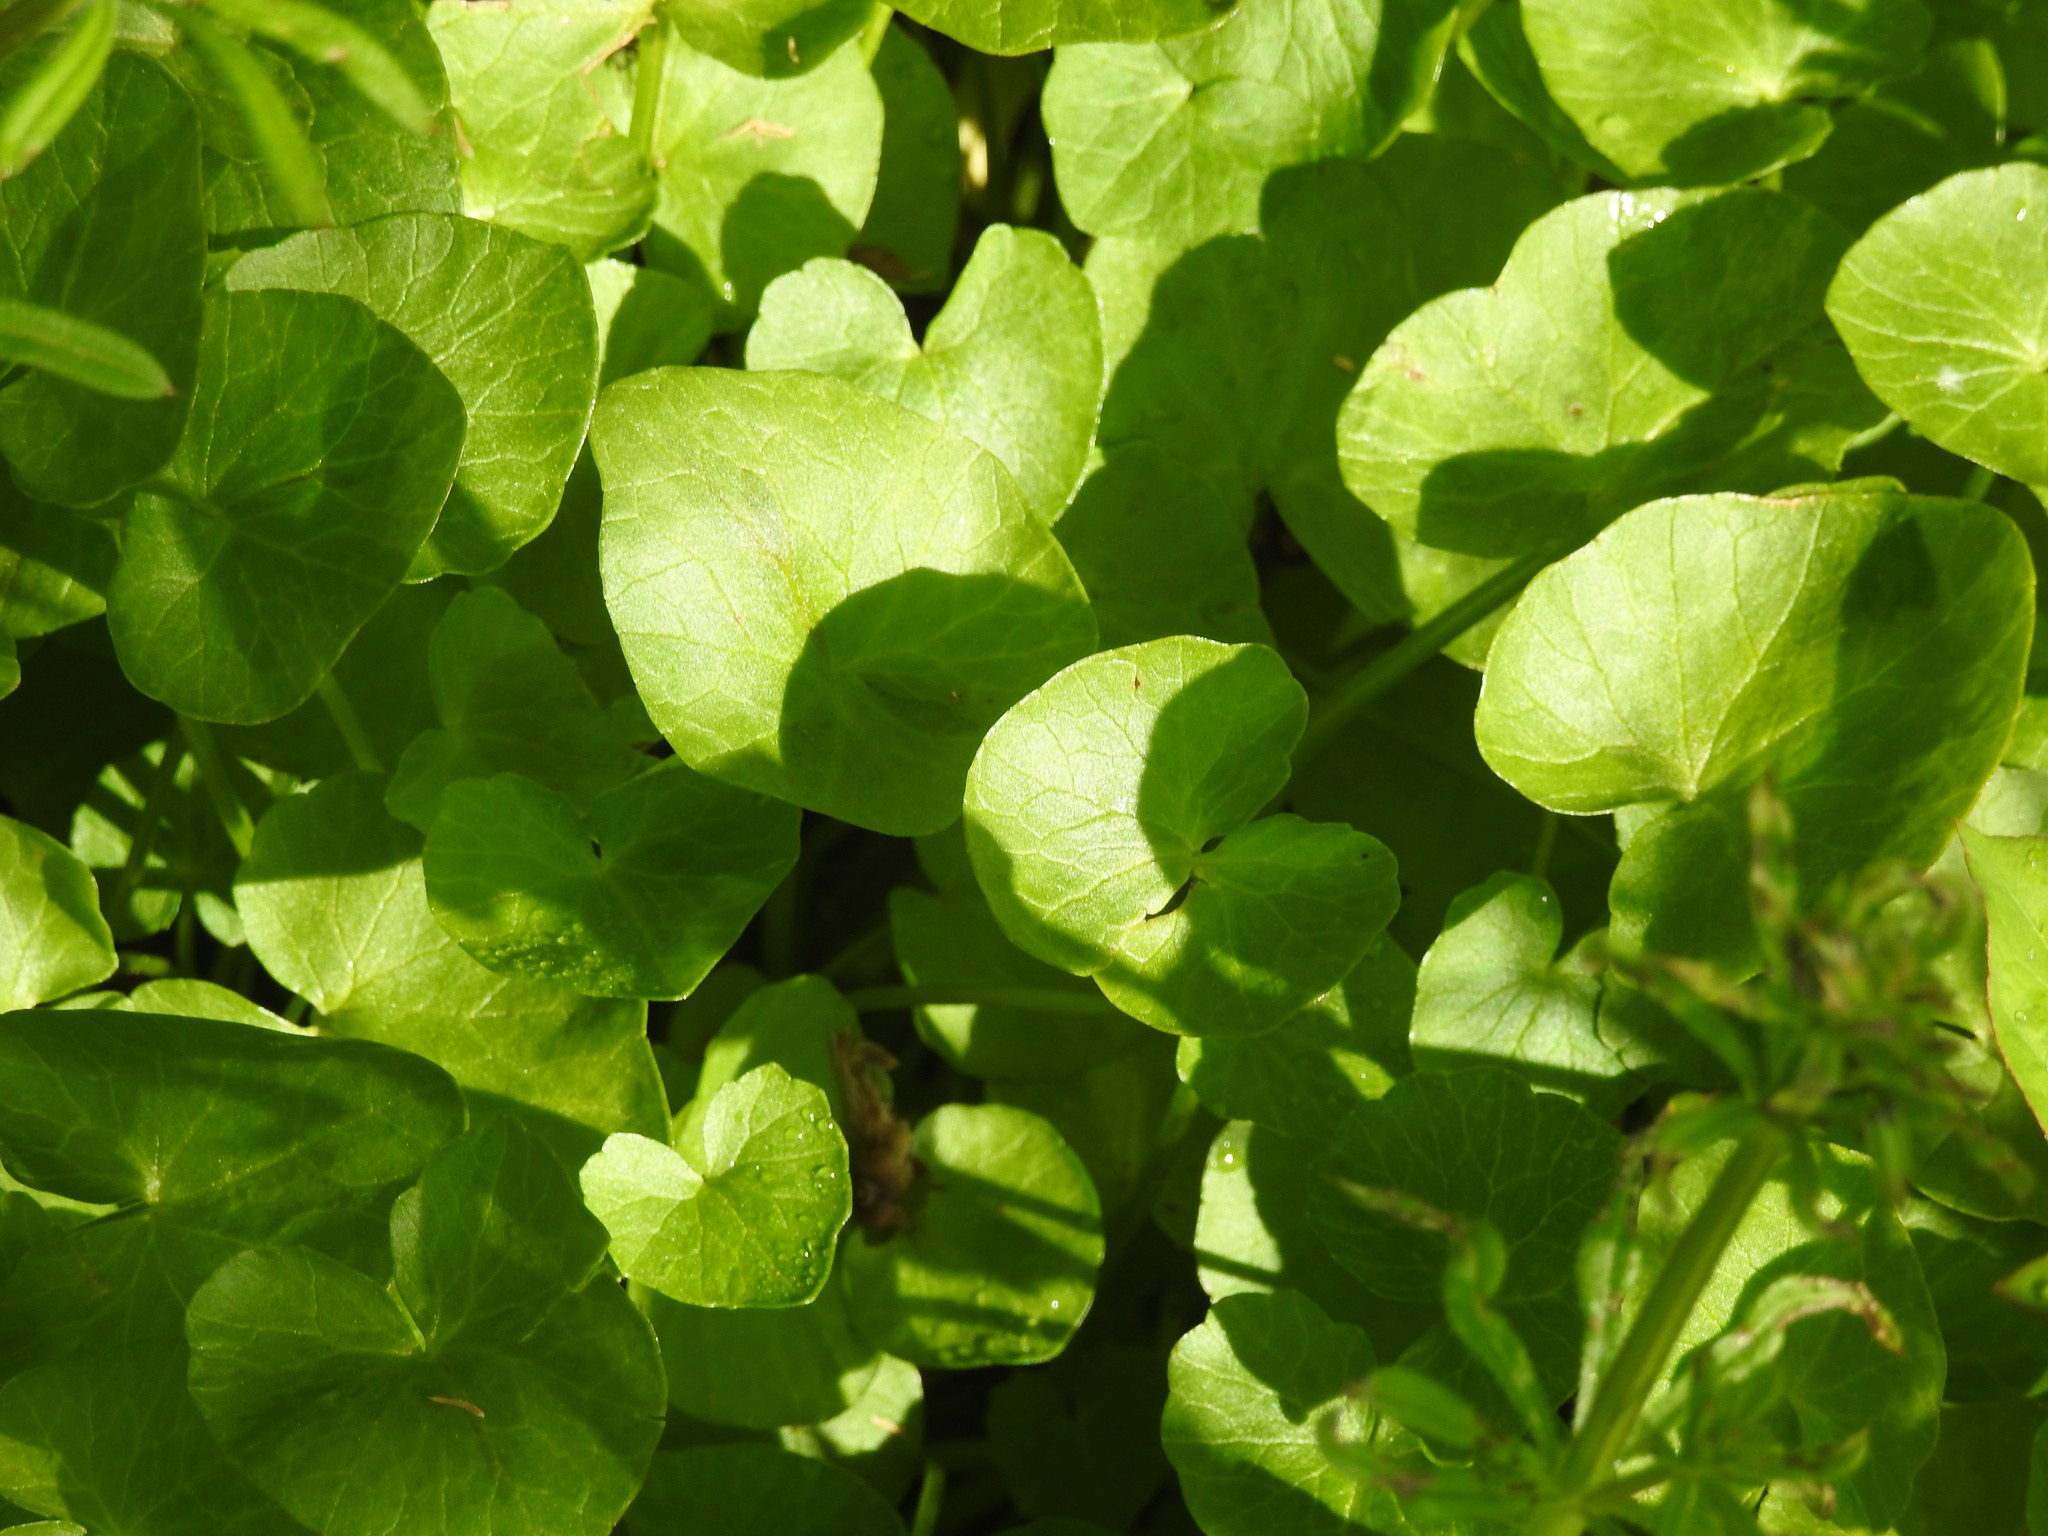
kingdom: Plantae
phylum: Tracheophyta
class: Magnoliopsida
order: Ranunculales
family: Ranunculaceae
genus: Ficaria
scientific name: Ficaria verna
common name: Lesser celandine
